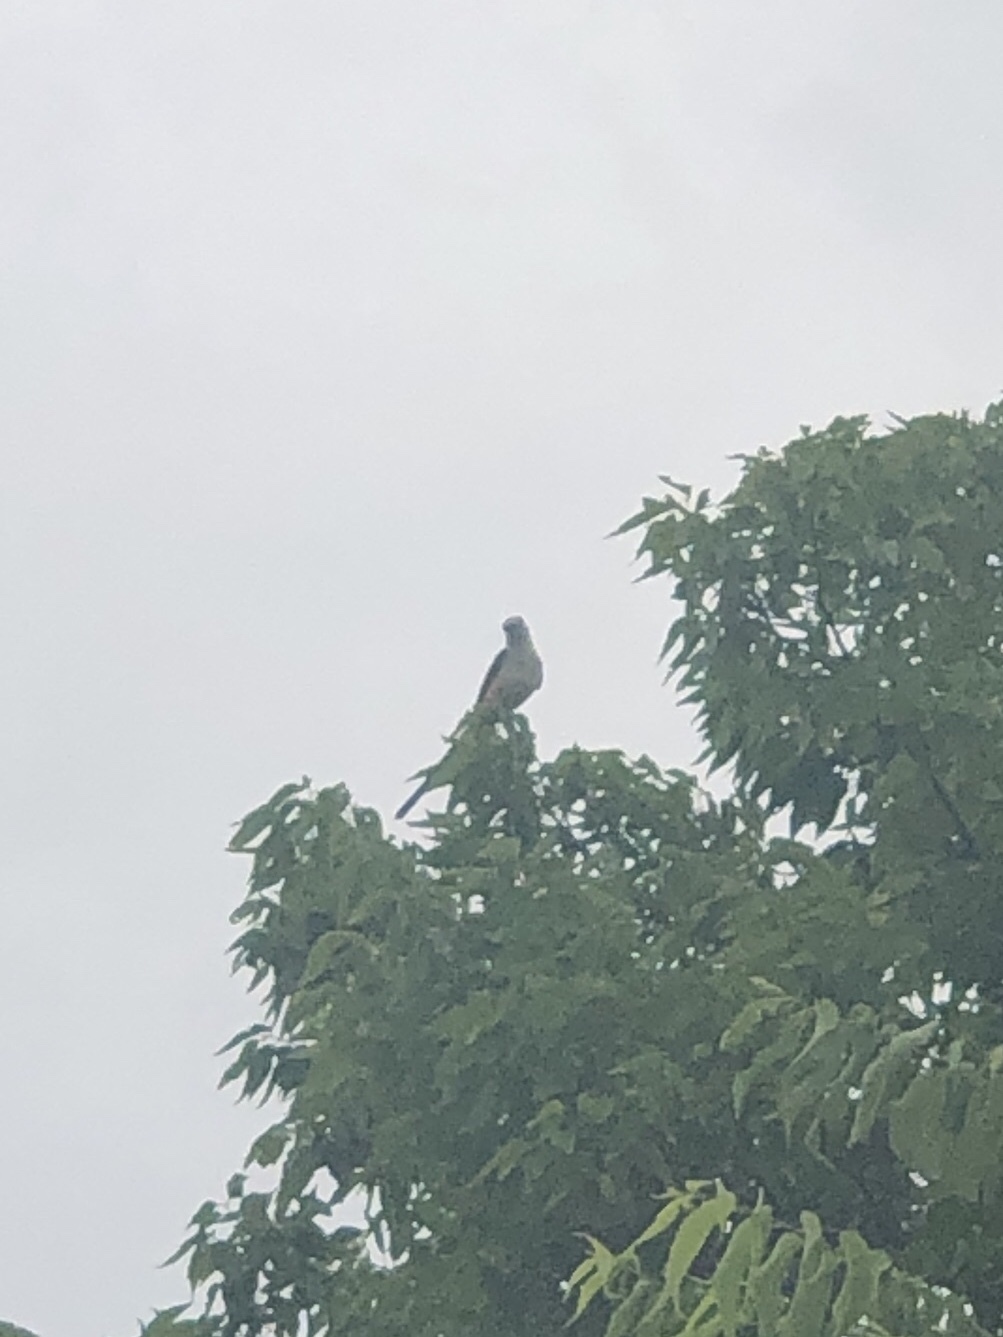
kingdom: Animalia
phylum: Chordata
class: Aves
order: Passeriformes
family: Tyrannidae
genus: Tyrannus
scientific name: Tyrannus forficatus
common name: Scissor-tailed flycatcher
